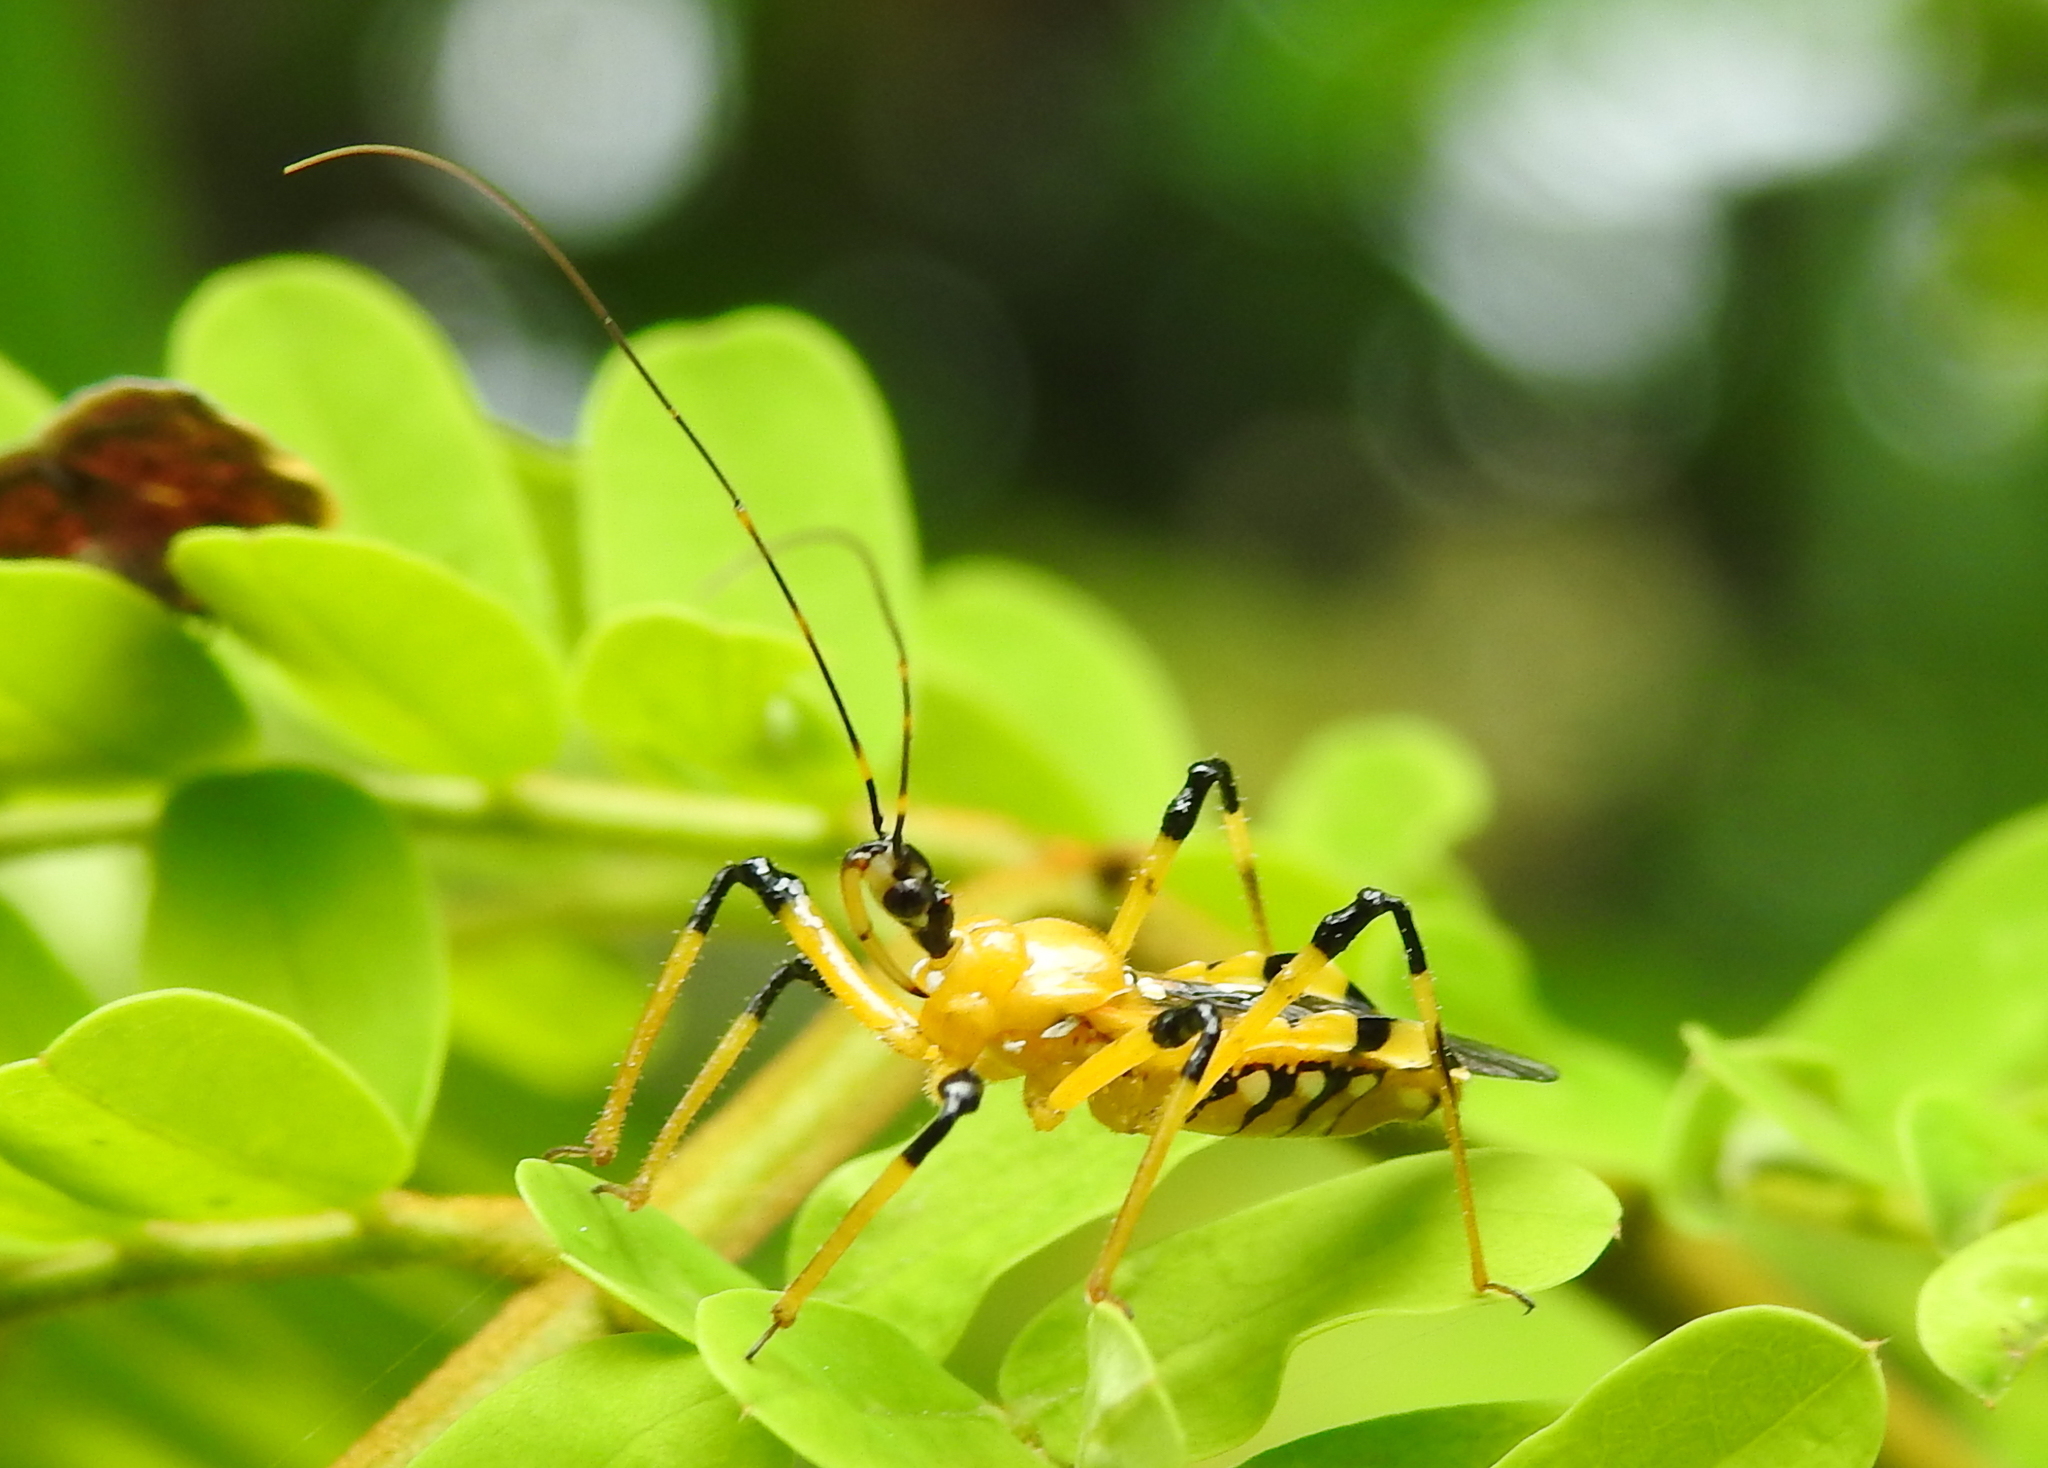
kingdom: Animalia
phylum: Arthropoda
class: Insecta
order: Hemiptera
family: Reduviidae
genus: Cosmolestes
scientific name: Cosmolestes picticeps
